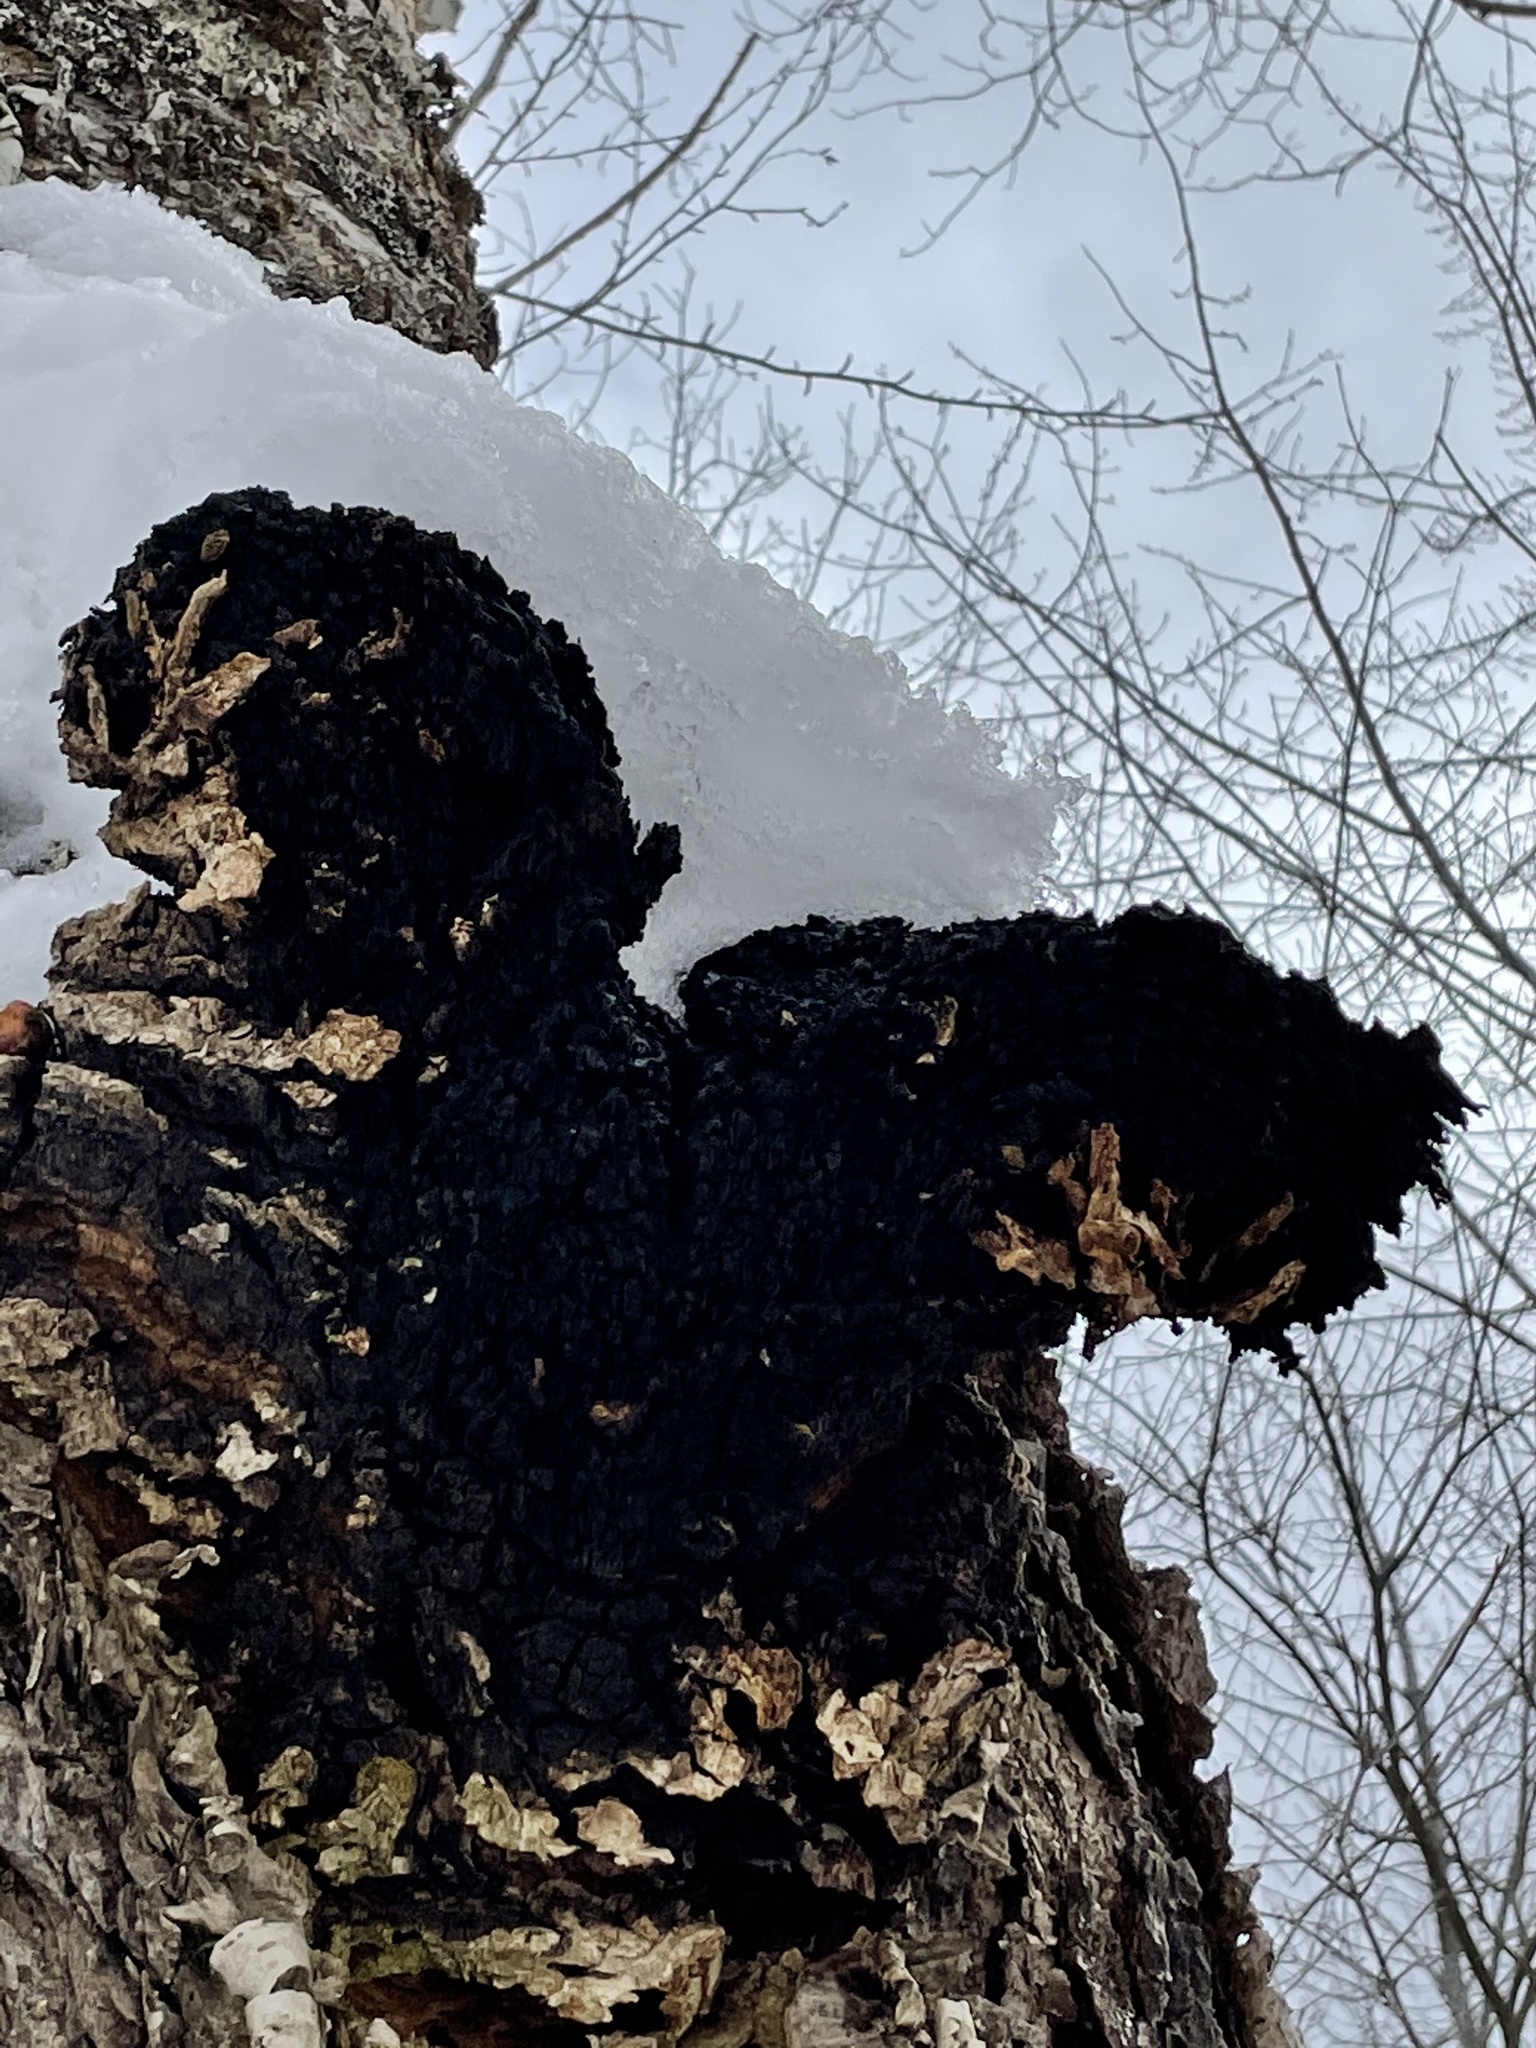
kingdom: Fungi
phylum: Basidiomycota
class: Agaricomycetes
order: Hymenochaetales
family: Hymenochaetaceae
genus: Inonotus
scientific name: Inonotus obliquus
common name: Chaga
